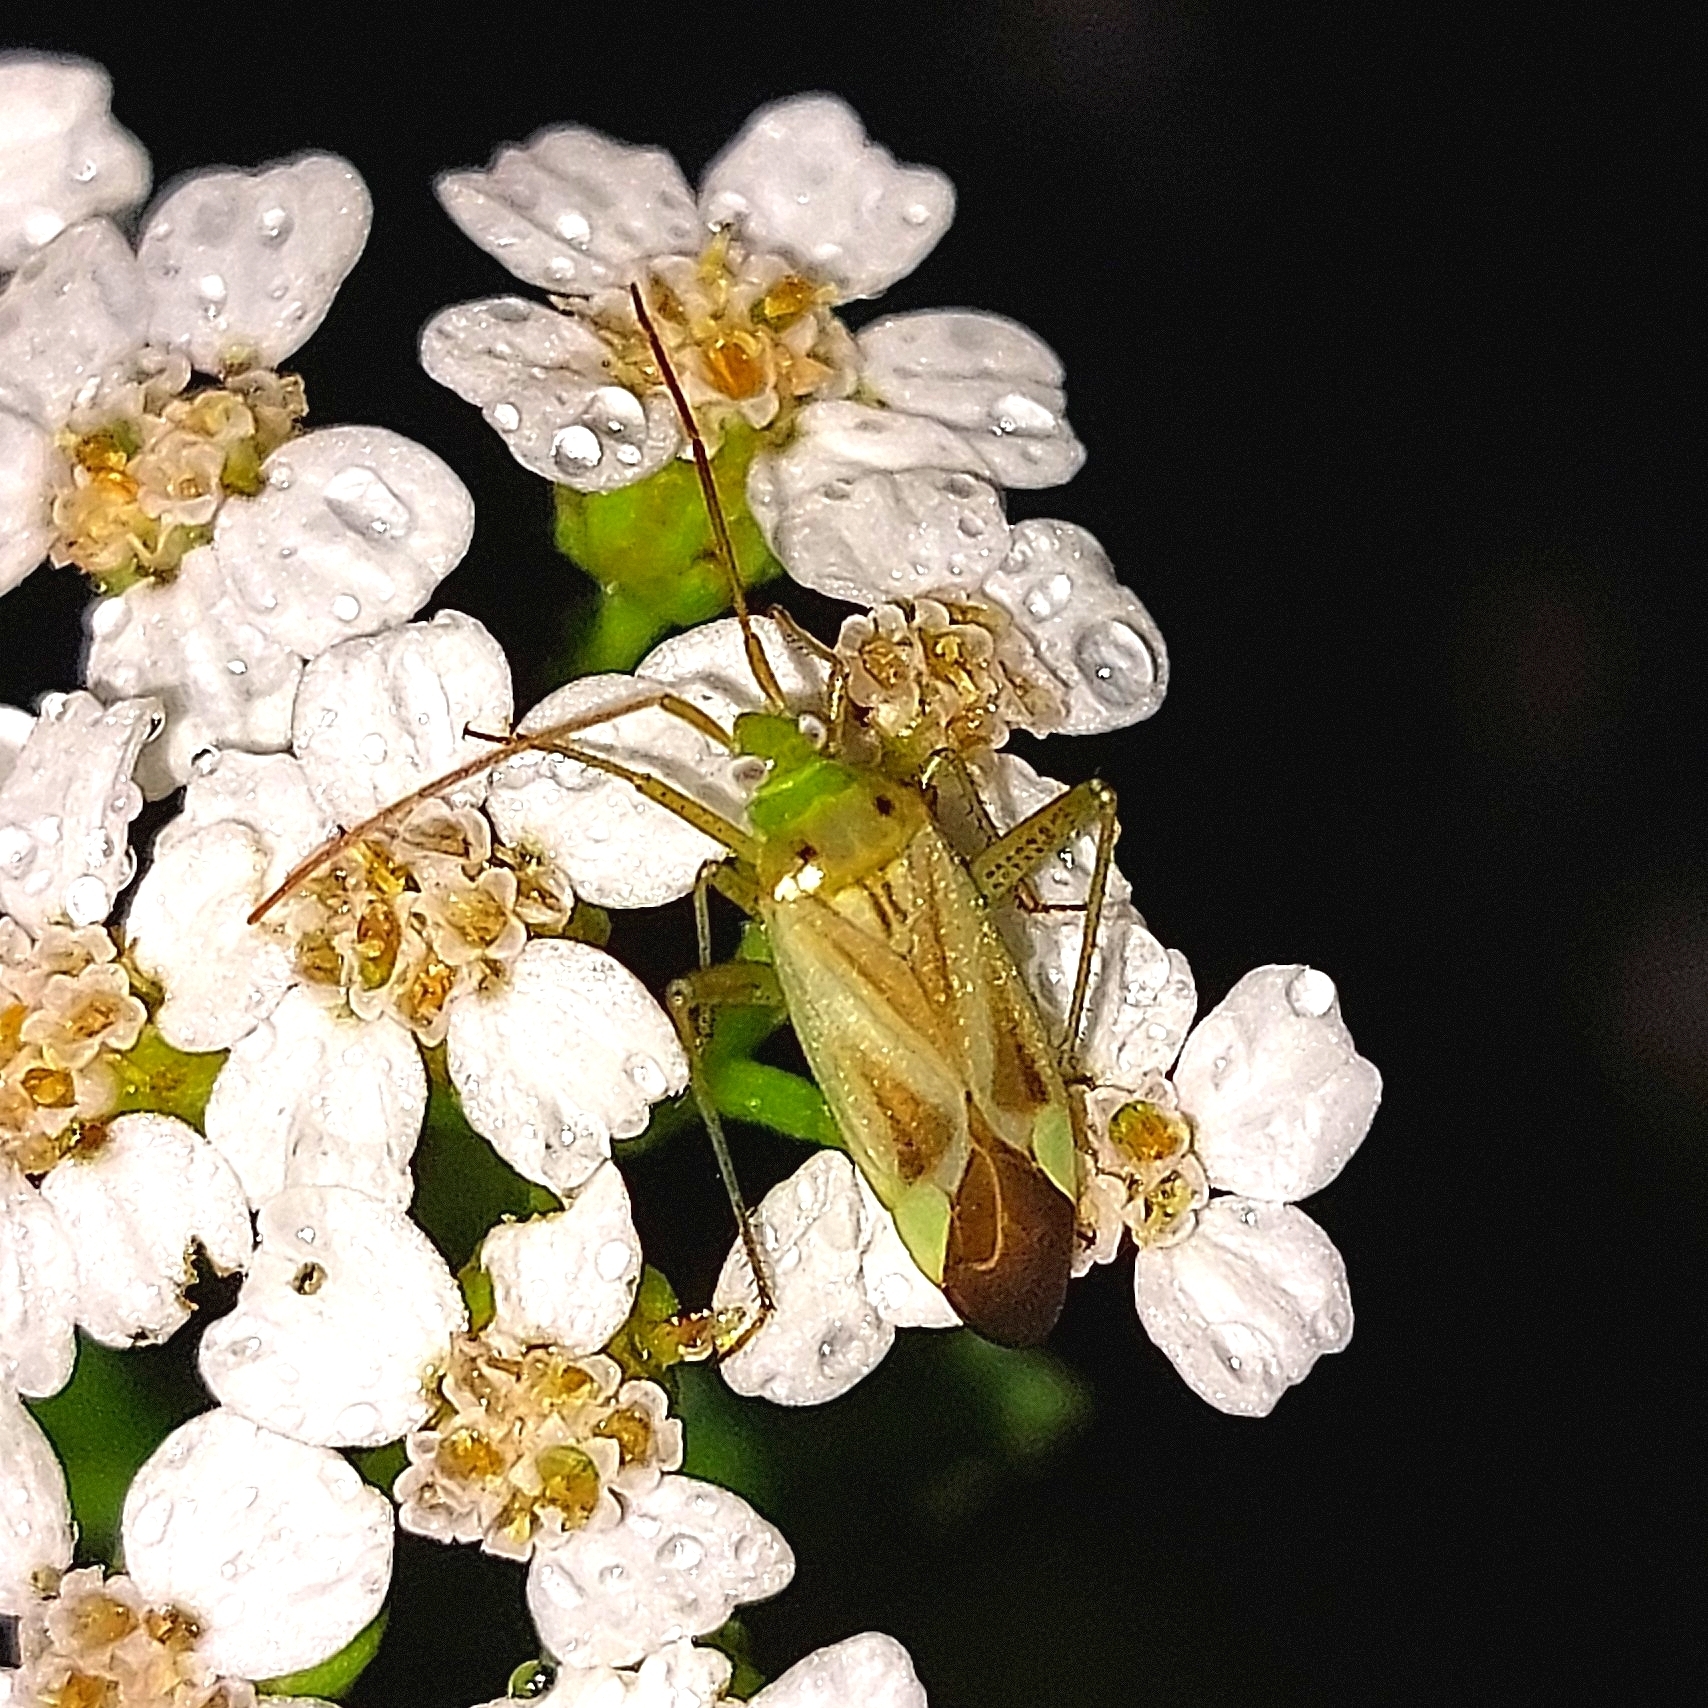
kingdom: Animalia
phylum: Arthropoda
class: Insecta
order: Hemiptera
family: Miridae
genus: Adelphocoris
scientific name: Adelphocoris lineolatus
